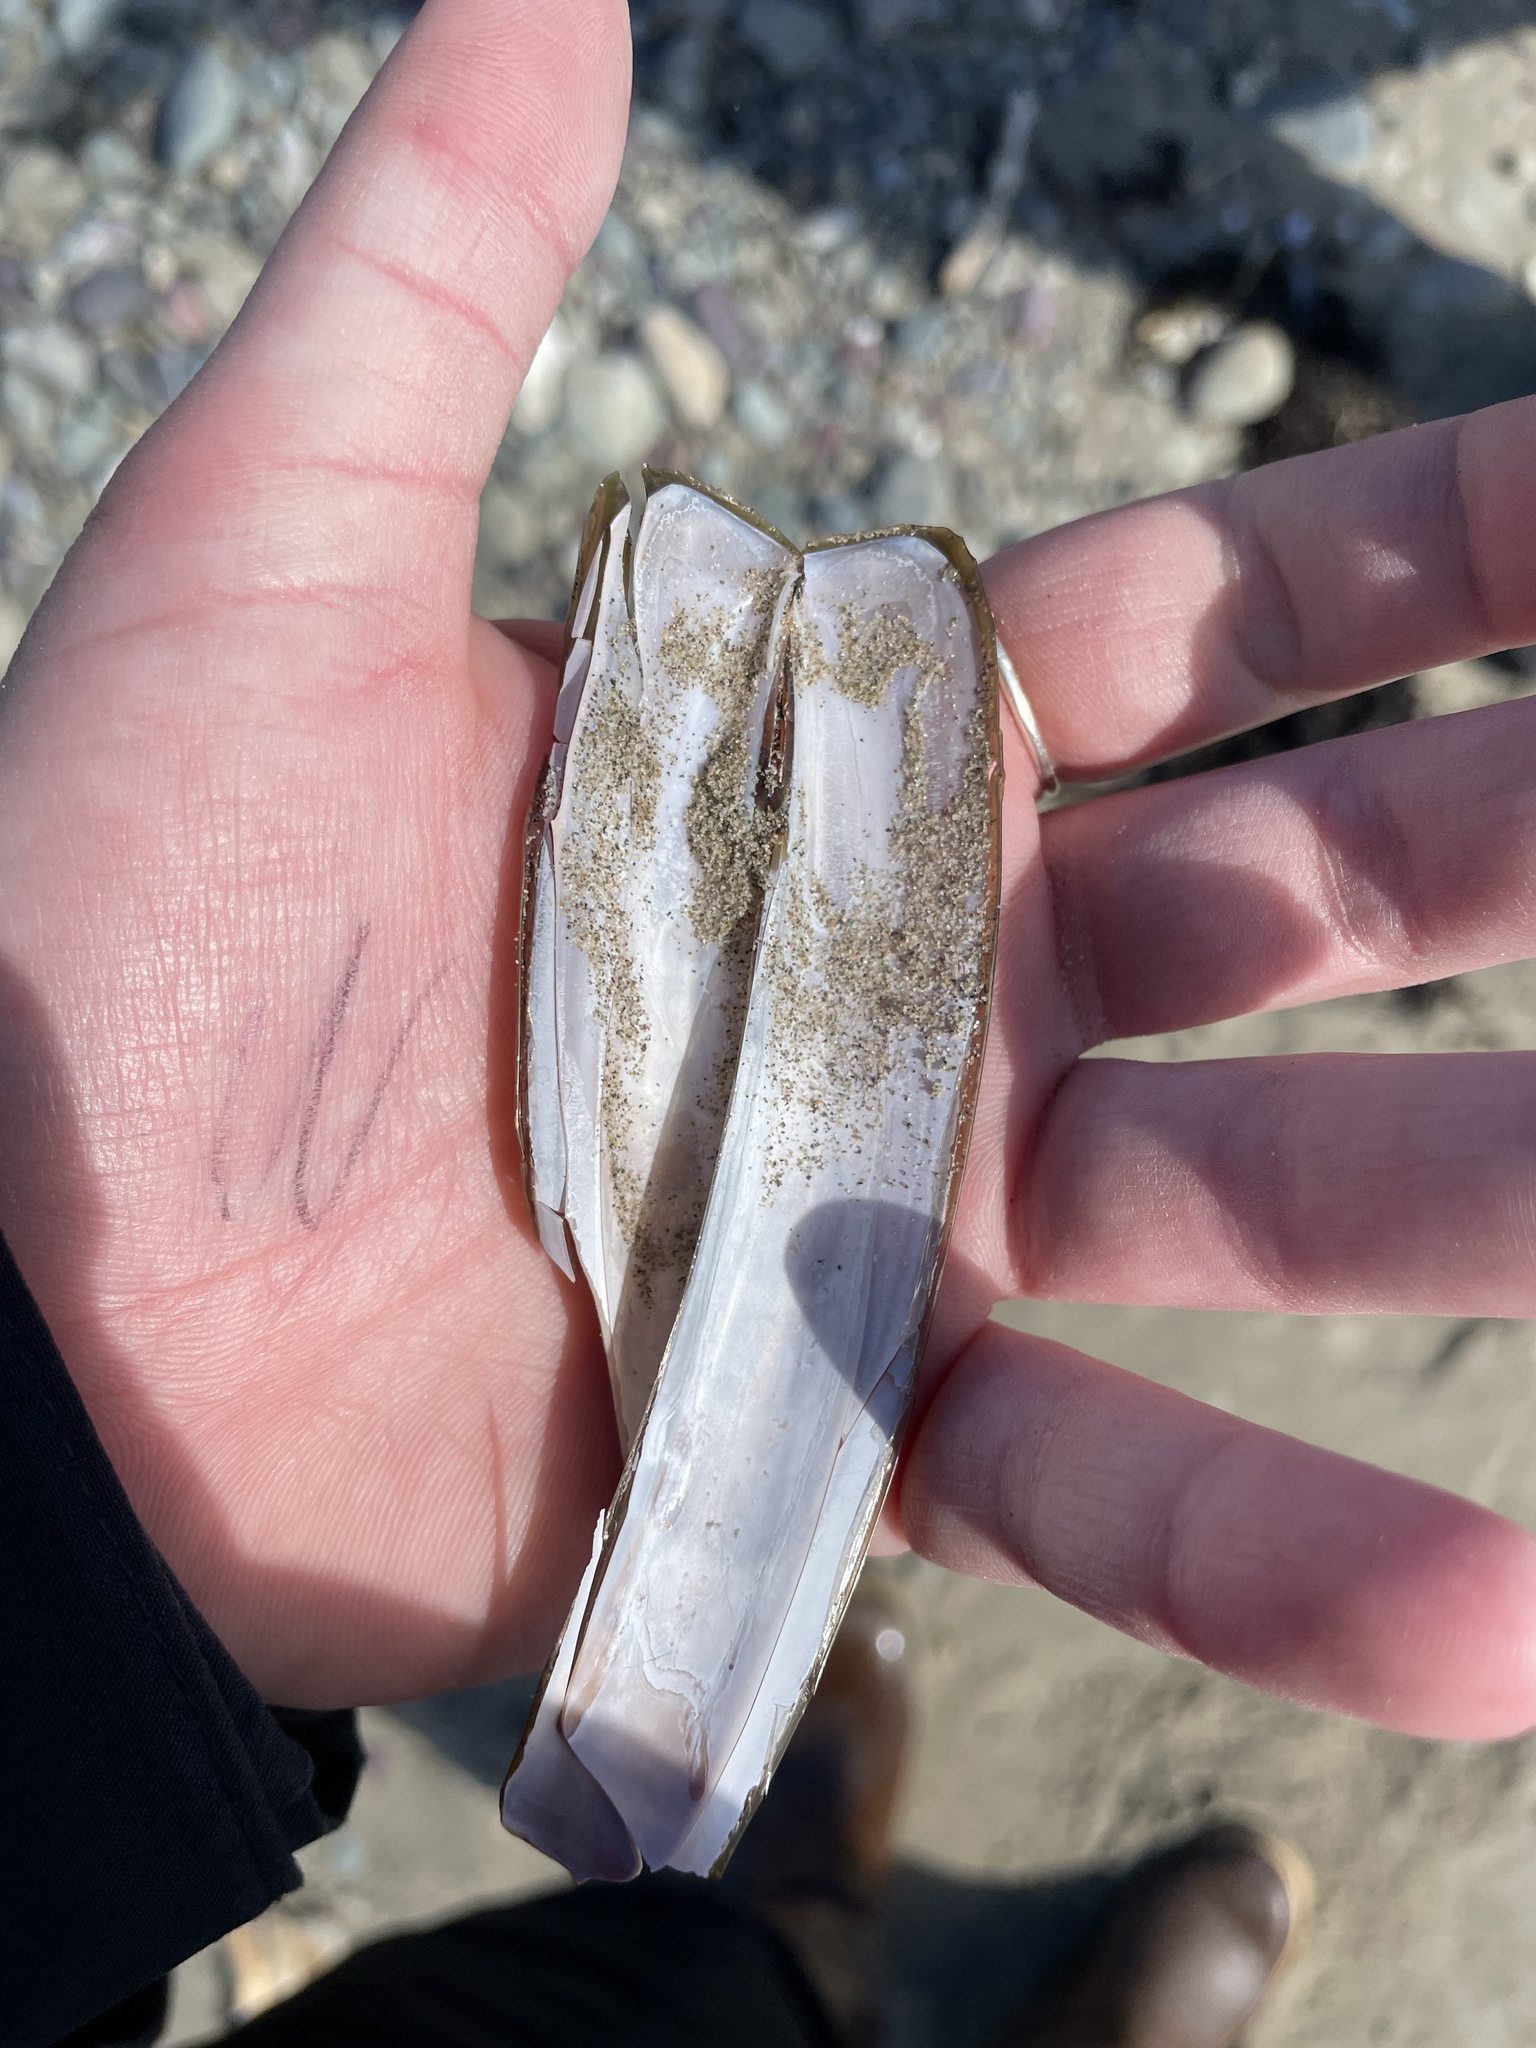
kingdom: Animalia
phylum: Mollusca
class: Bivalvia
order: Adapedonta
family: Pharidae
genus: Ensis
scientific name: Ensis leei
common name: American jack knife clam
